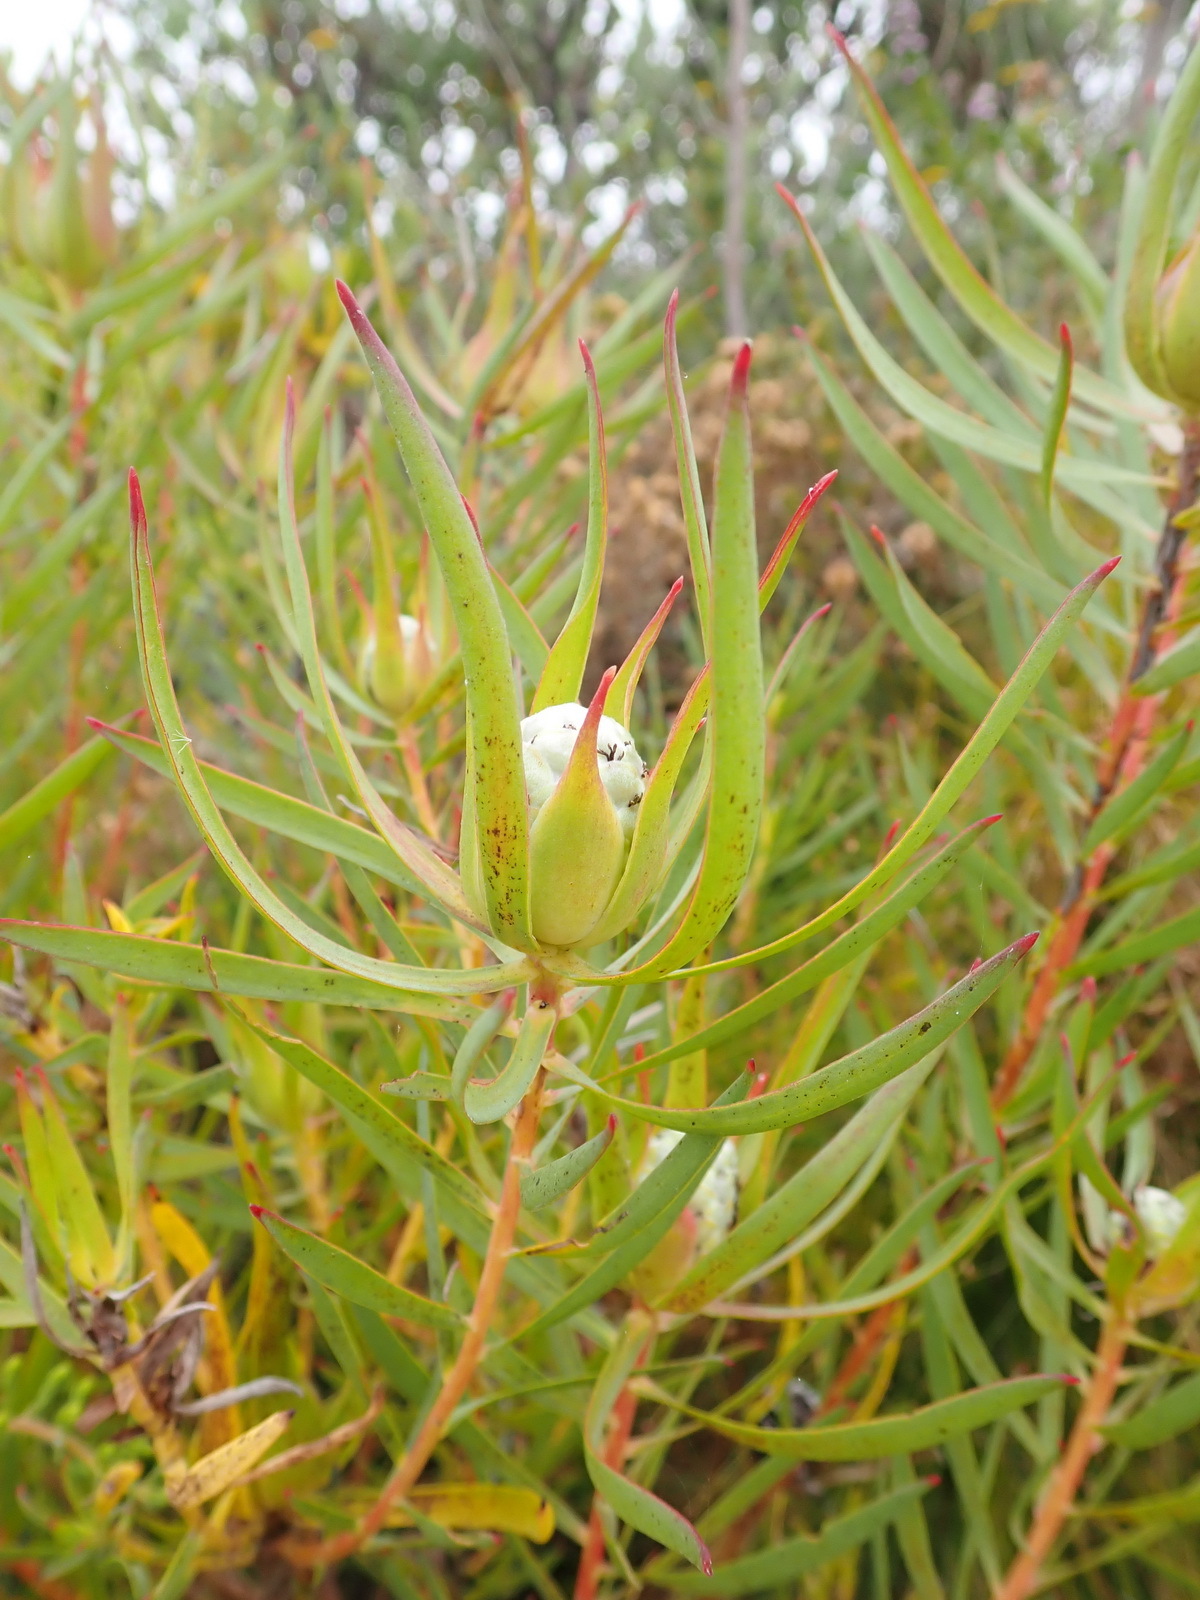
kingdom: Plantae
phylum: Tracheophyta
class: Magnoliopsida
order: Proteales
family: Proteaceae
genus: Leucadendron
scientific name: Leucadendron salignum
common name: Common sunshine conebush
